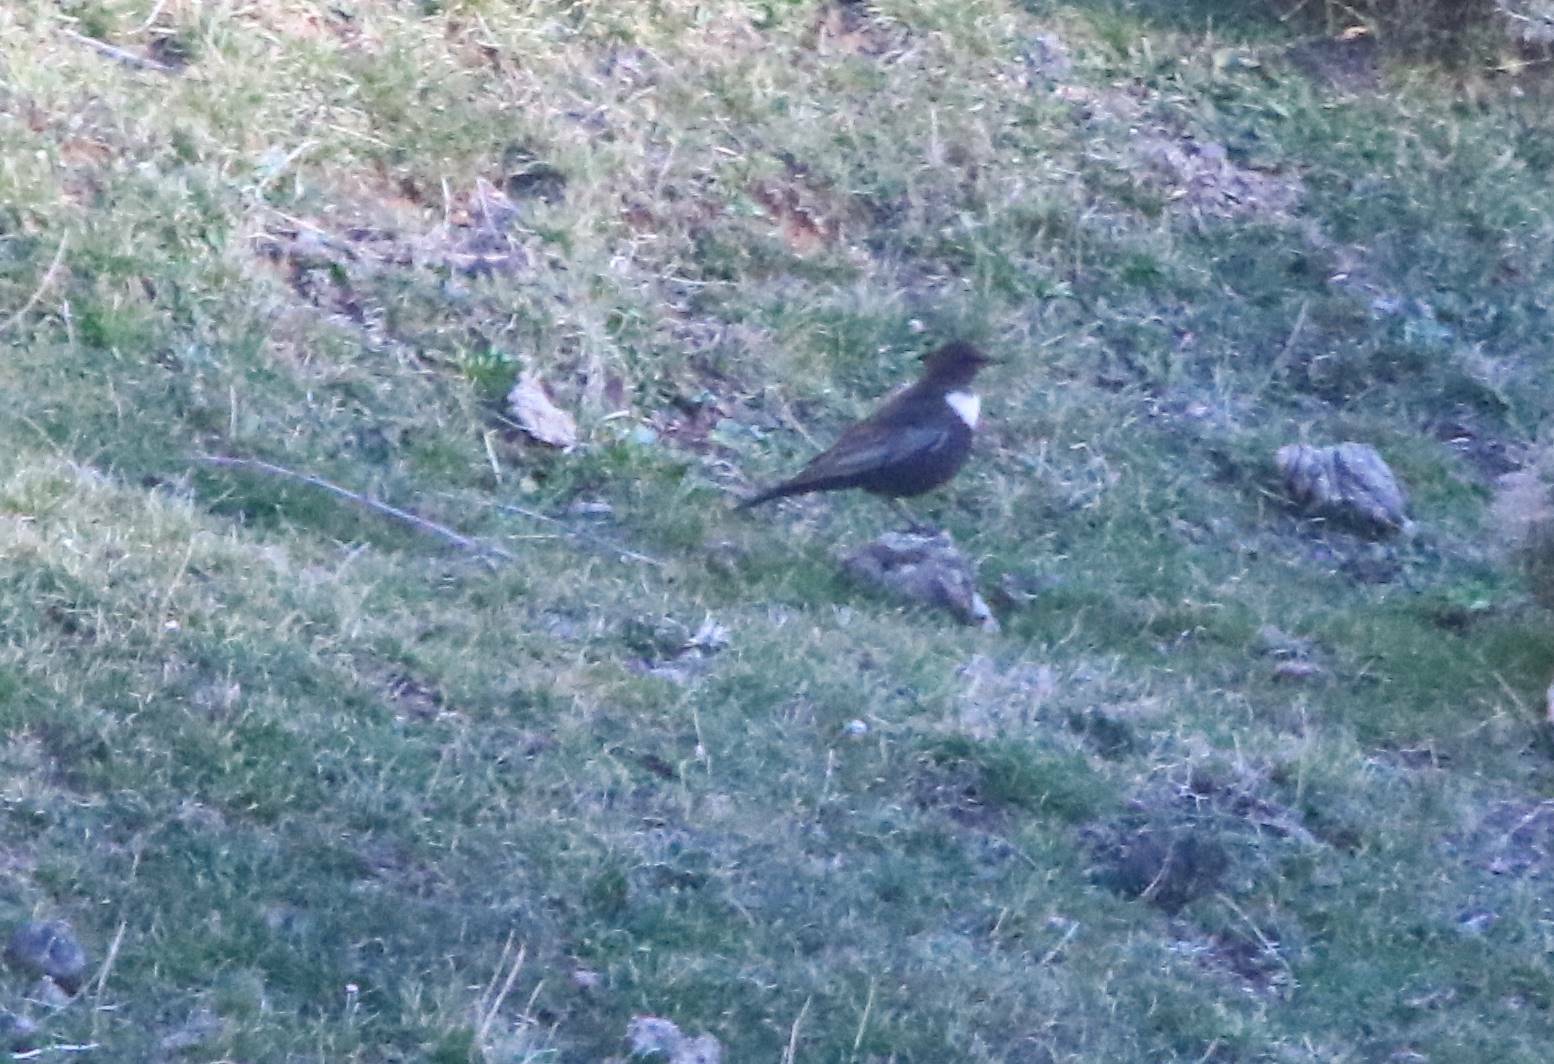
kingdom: Animalia
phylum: Chordata
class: Aves
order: Passeriformes
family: Turdidae
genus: Turdus
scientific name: Turdus torquatus
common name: Ring ouzel
